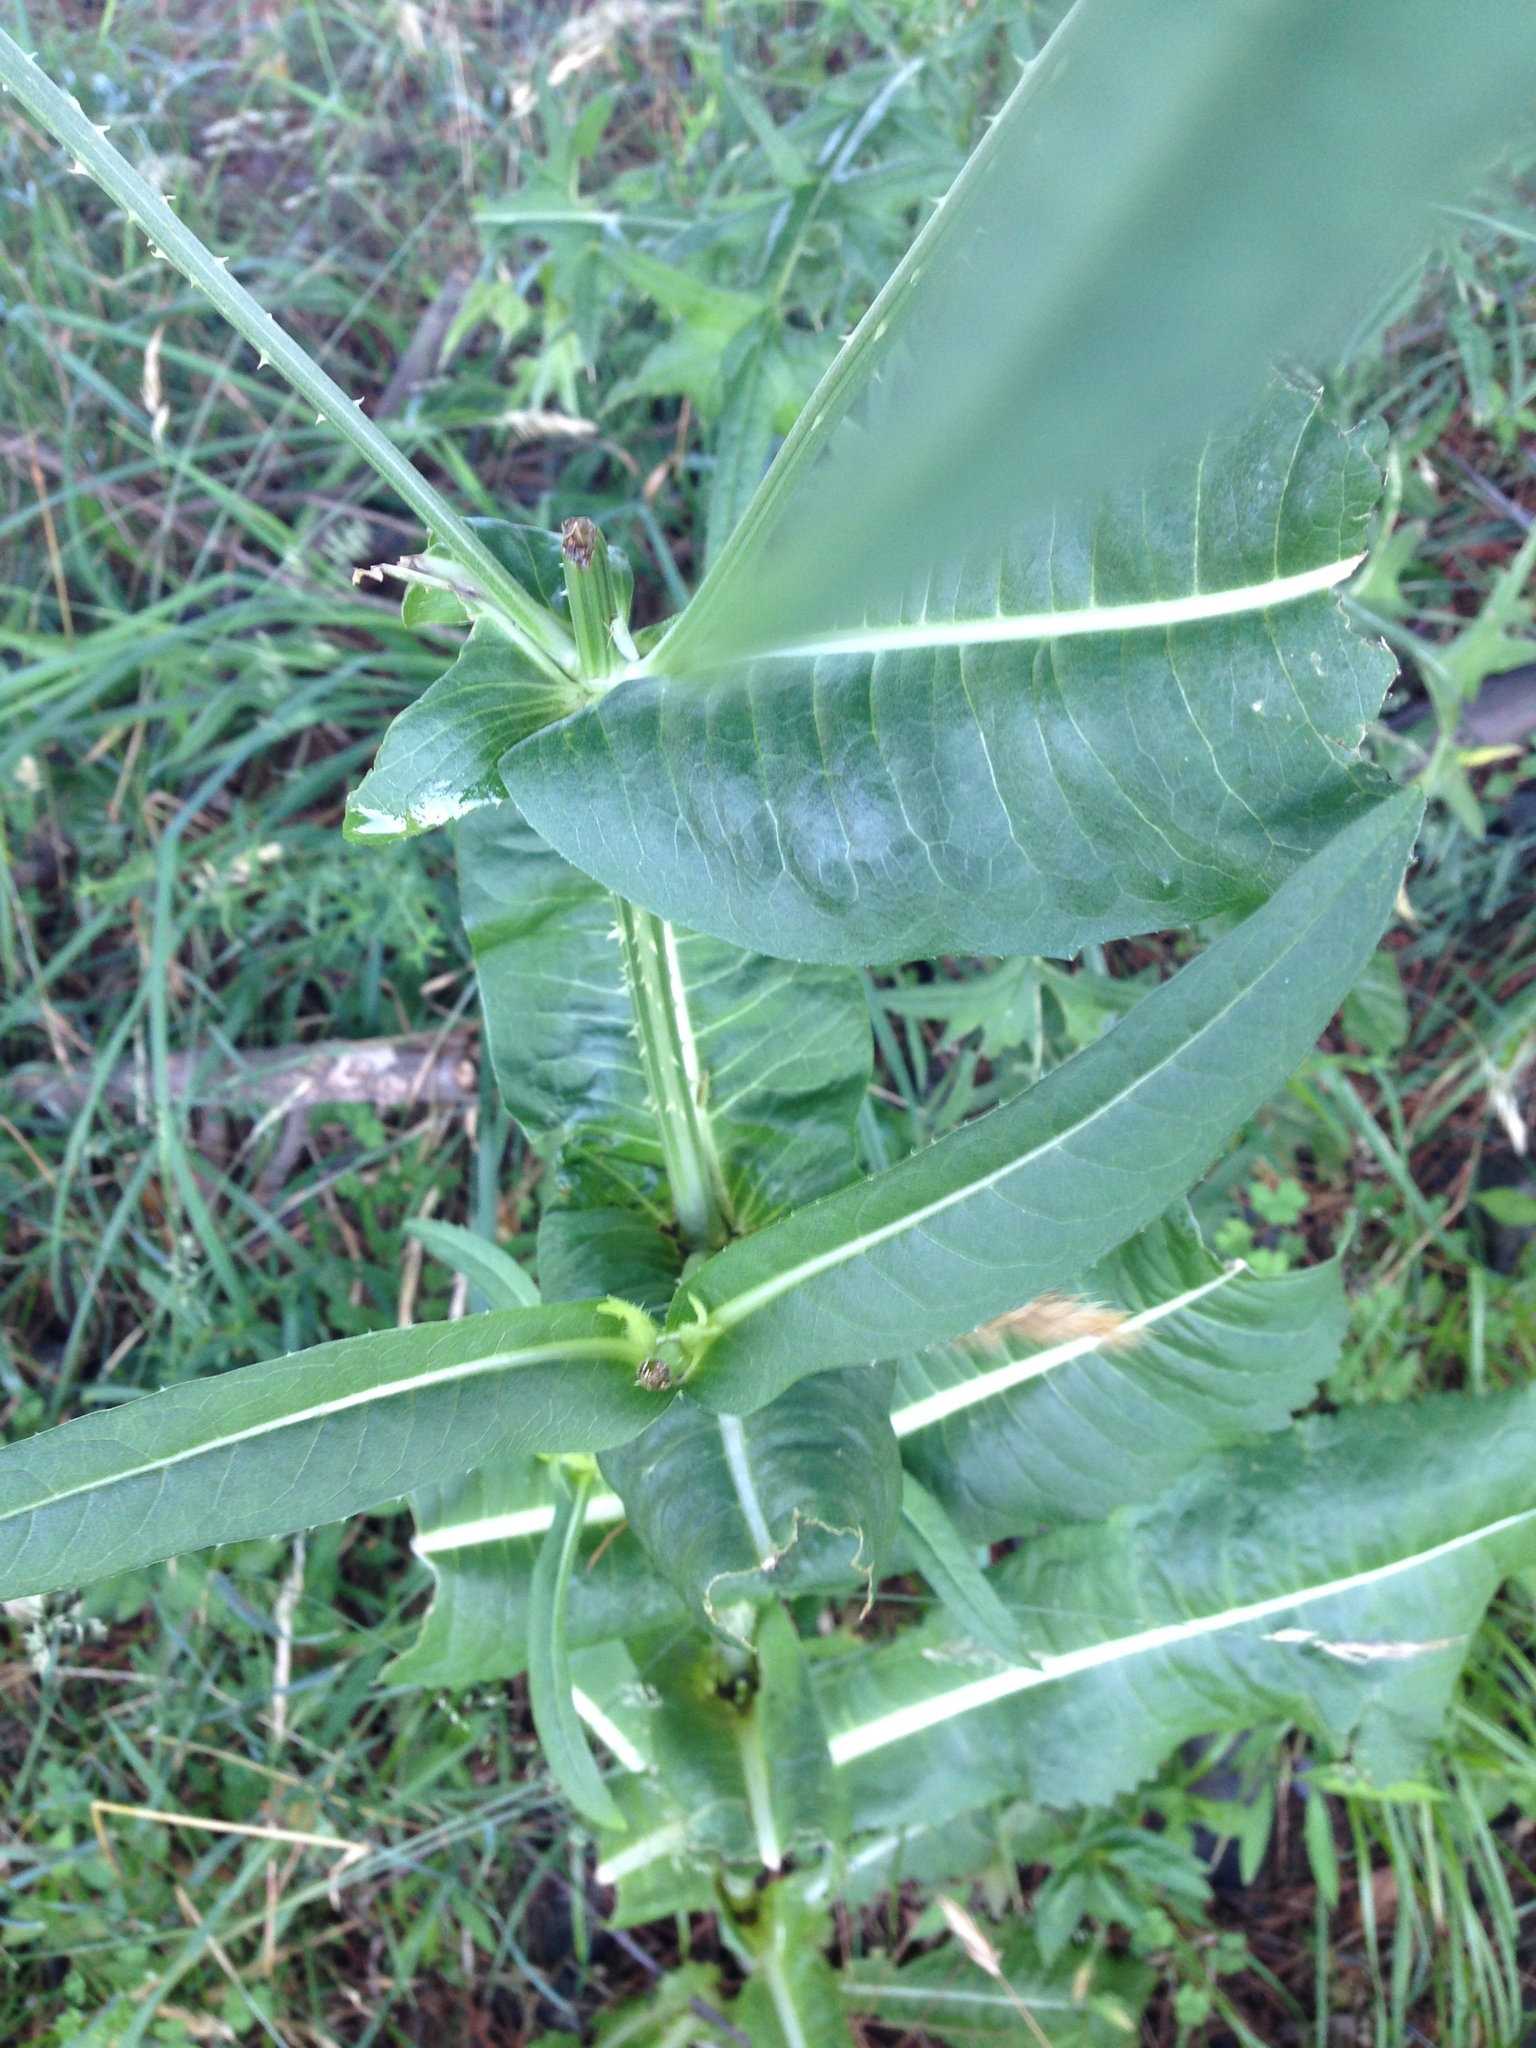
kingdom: Plantae
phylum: Tracheophyta
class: Magnoliopsida
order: Dipsacales
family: Caprifoliaceae
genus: Dipsacus
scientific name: Dipsacus fullonum
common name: Teasel
